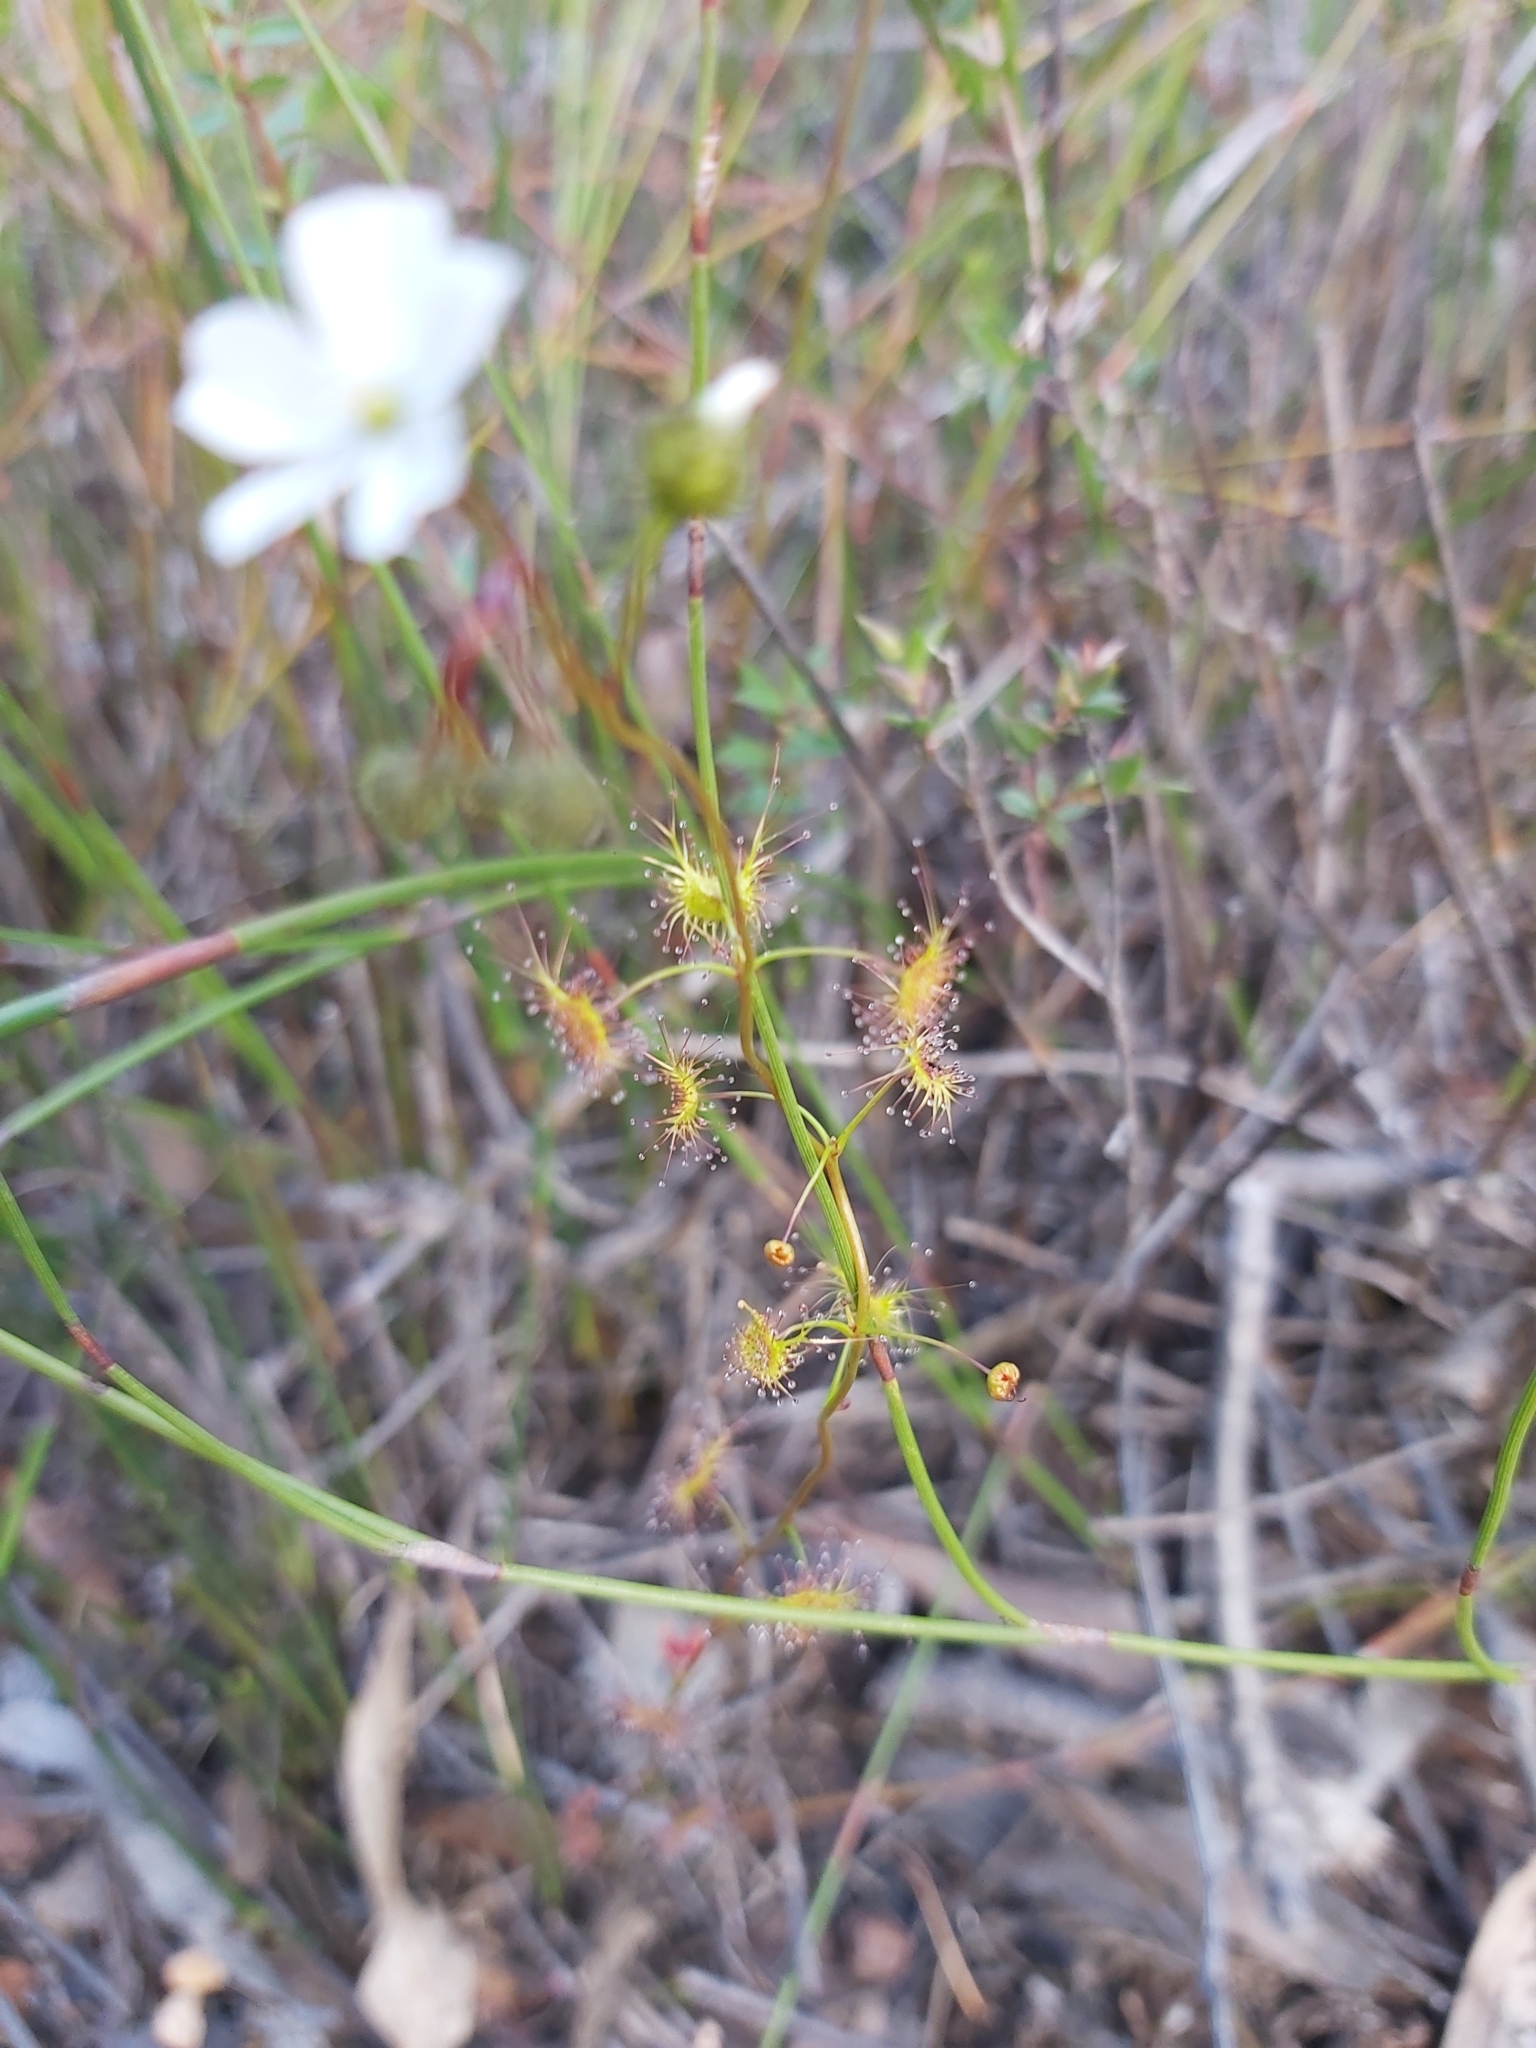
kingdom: Plantae
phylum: Tracheophyta
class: Magnoliopsida
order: Caryophyllales
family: Droseraceae
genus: Drosera
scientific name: Drosera peltata
